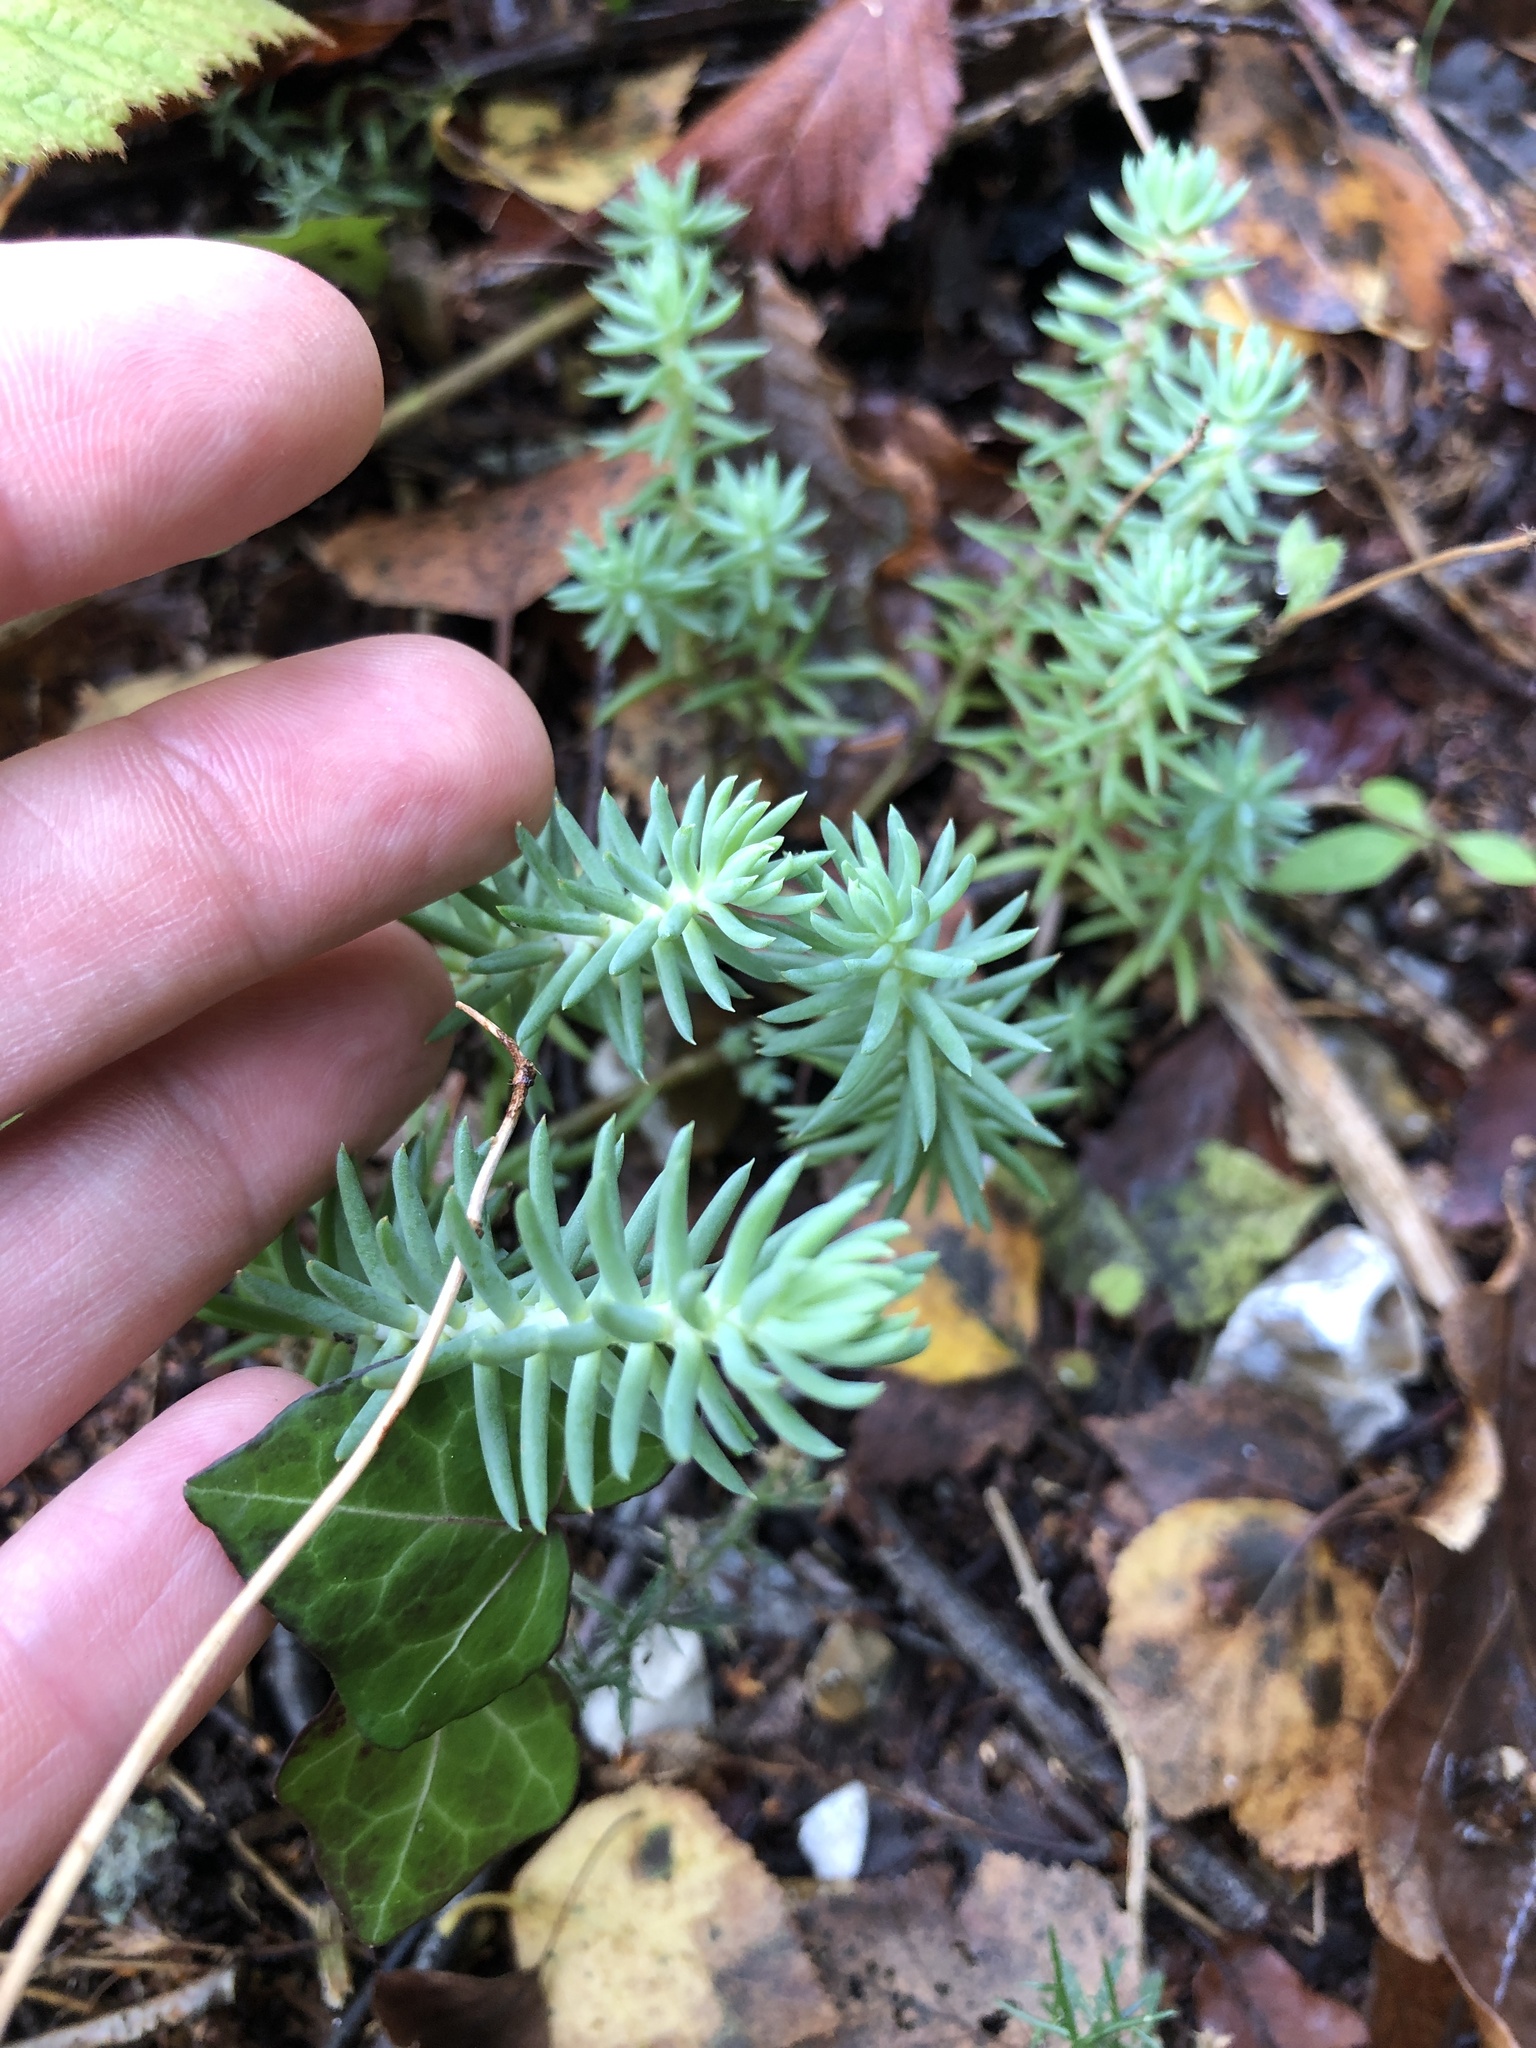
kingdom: Plantae
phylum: Tracheophyta
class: Magnoliopsida
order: Saxifragales
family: Crassulaceae
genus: Petrosedum
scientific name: Petrosedum rupestre
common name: Jenny's stonecrop
